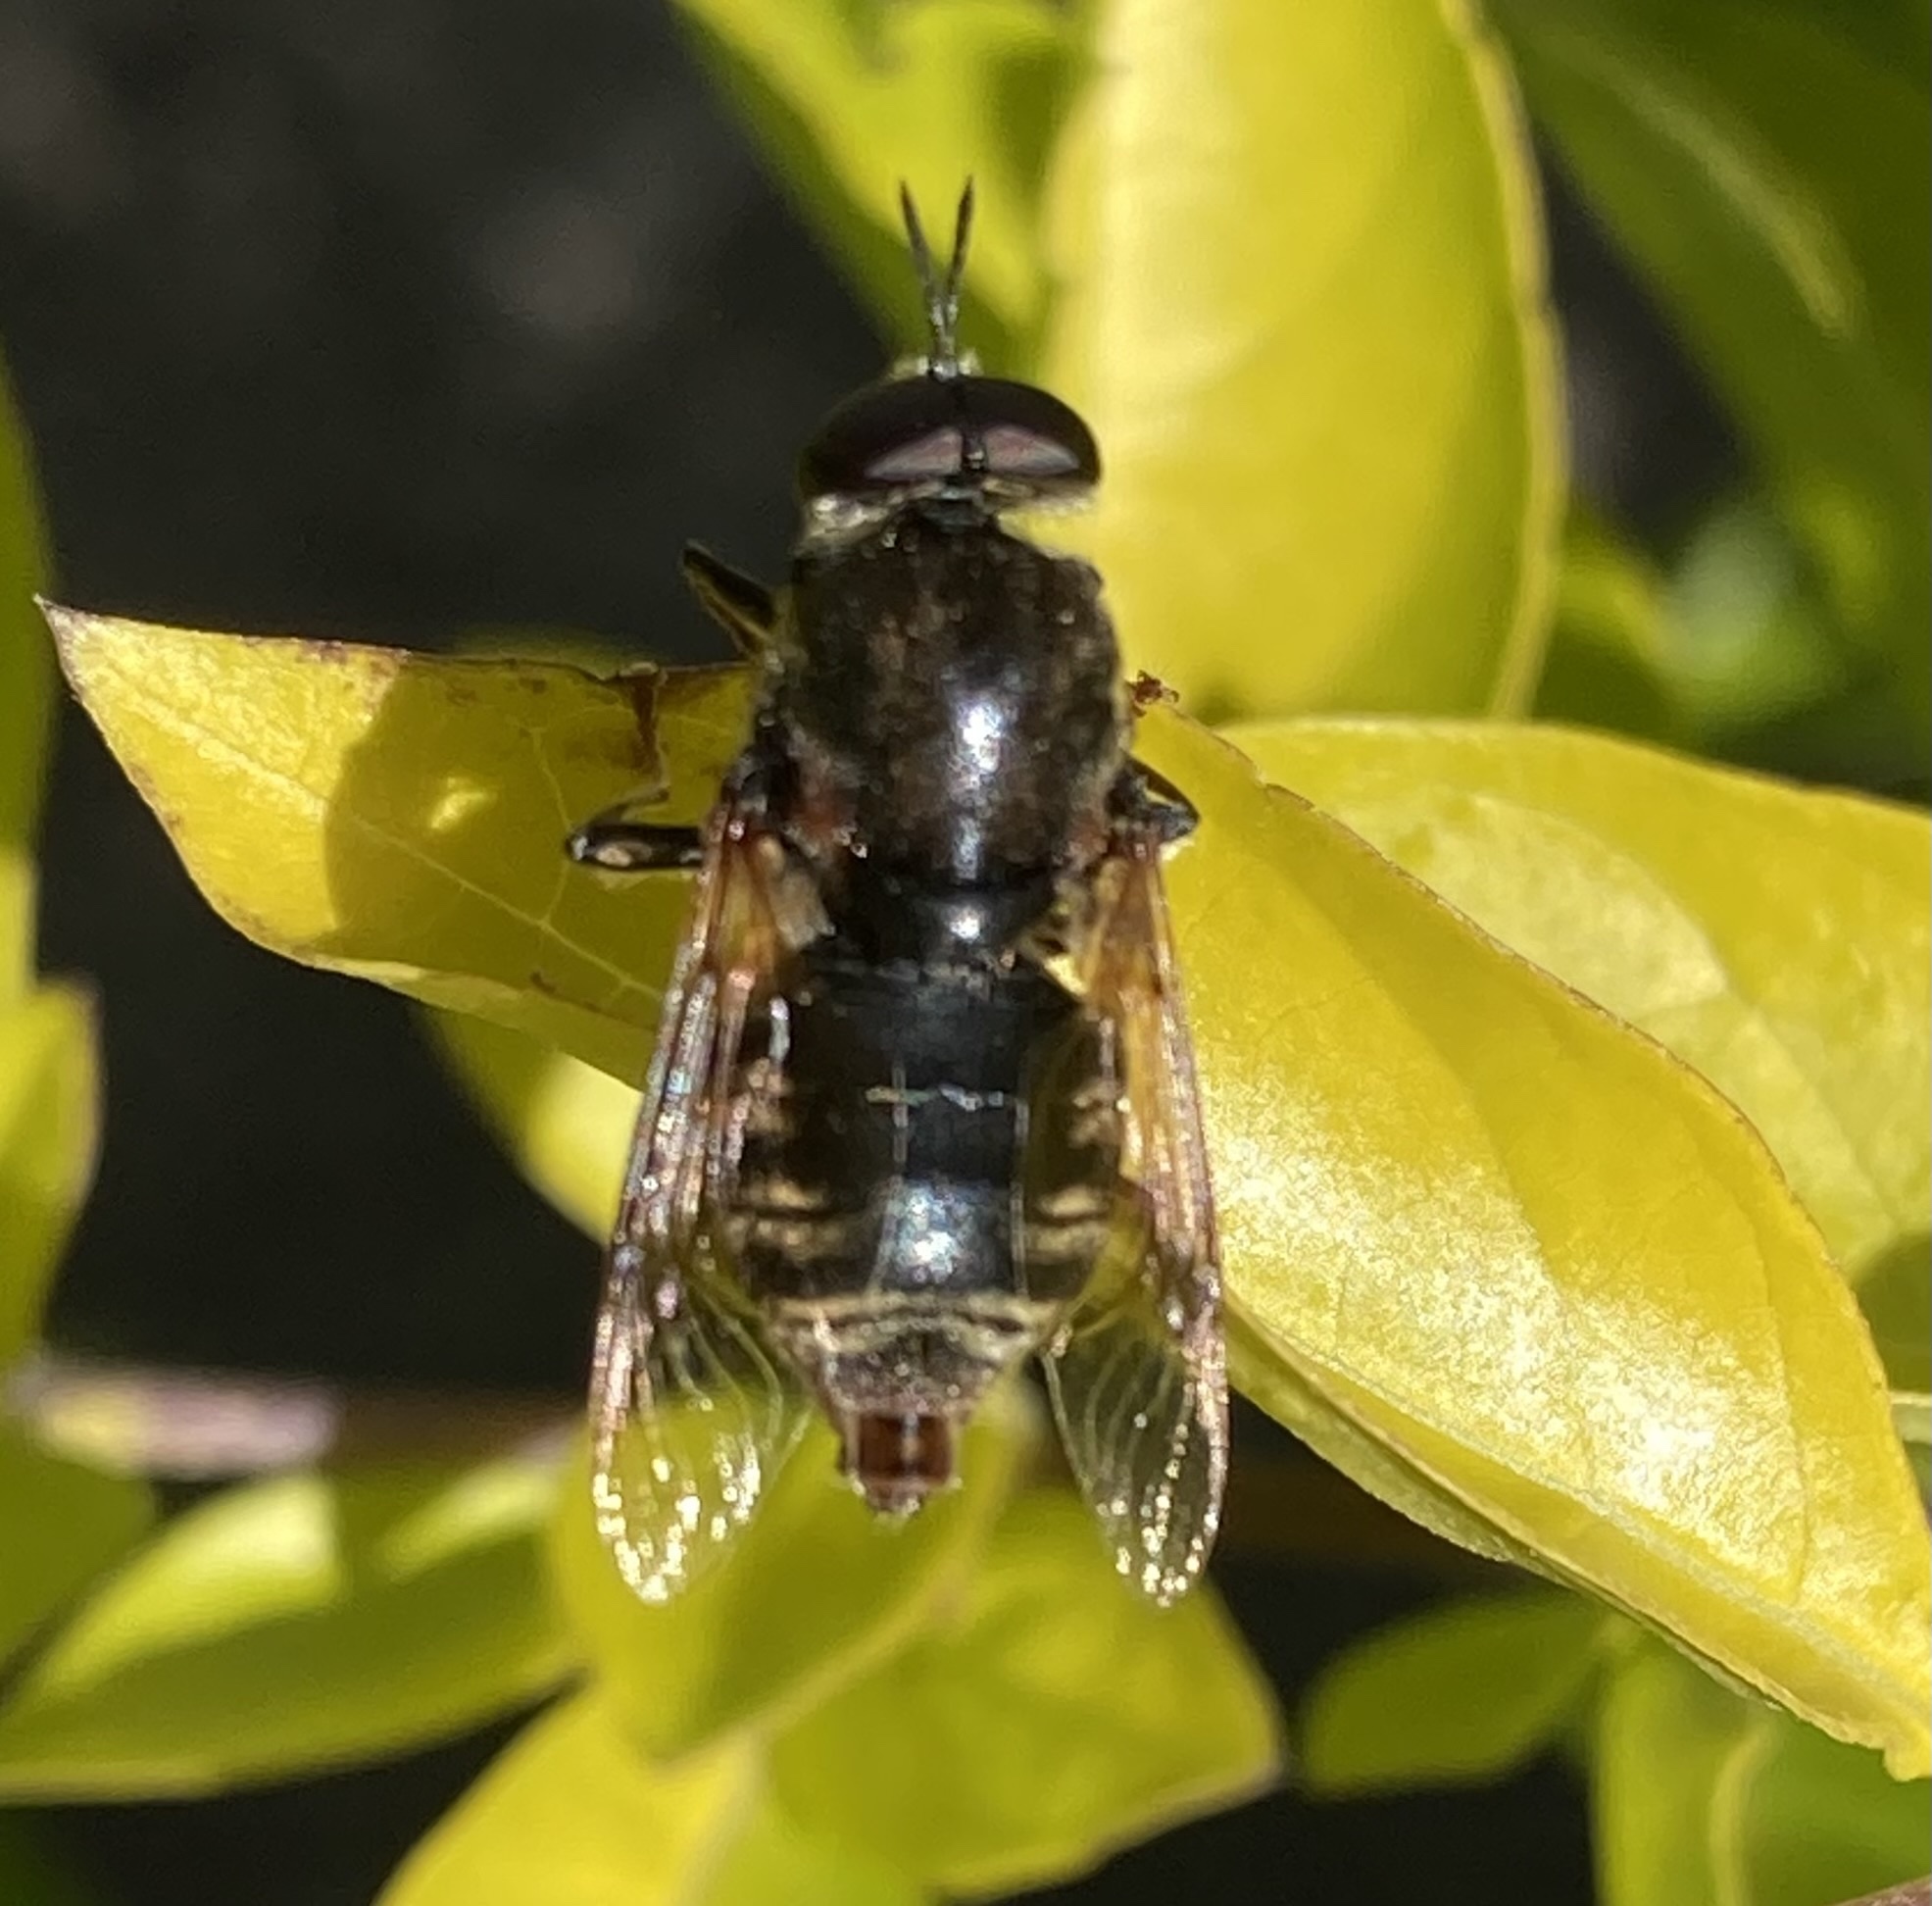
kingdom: Animalia
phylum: Arthropoda
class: Insecta
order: Diptera
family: Stratiomyidae
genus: Stratiomys
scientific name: Stratiomys constricta
